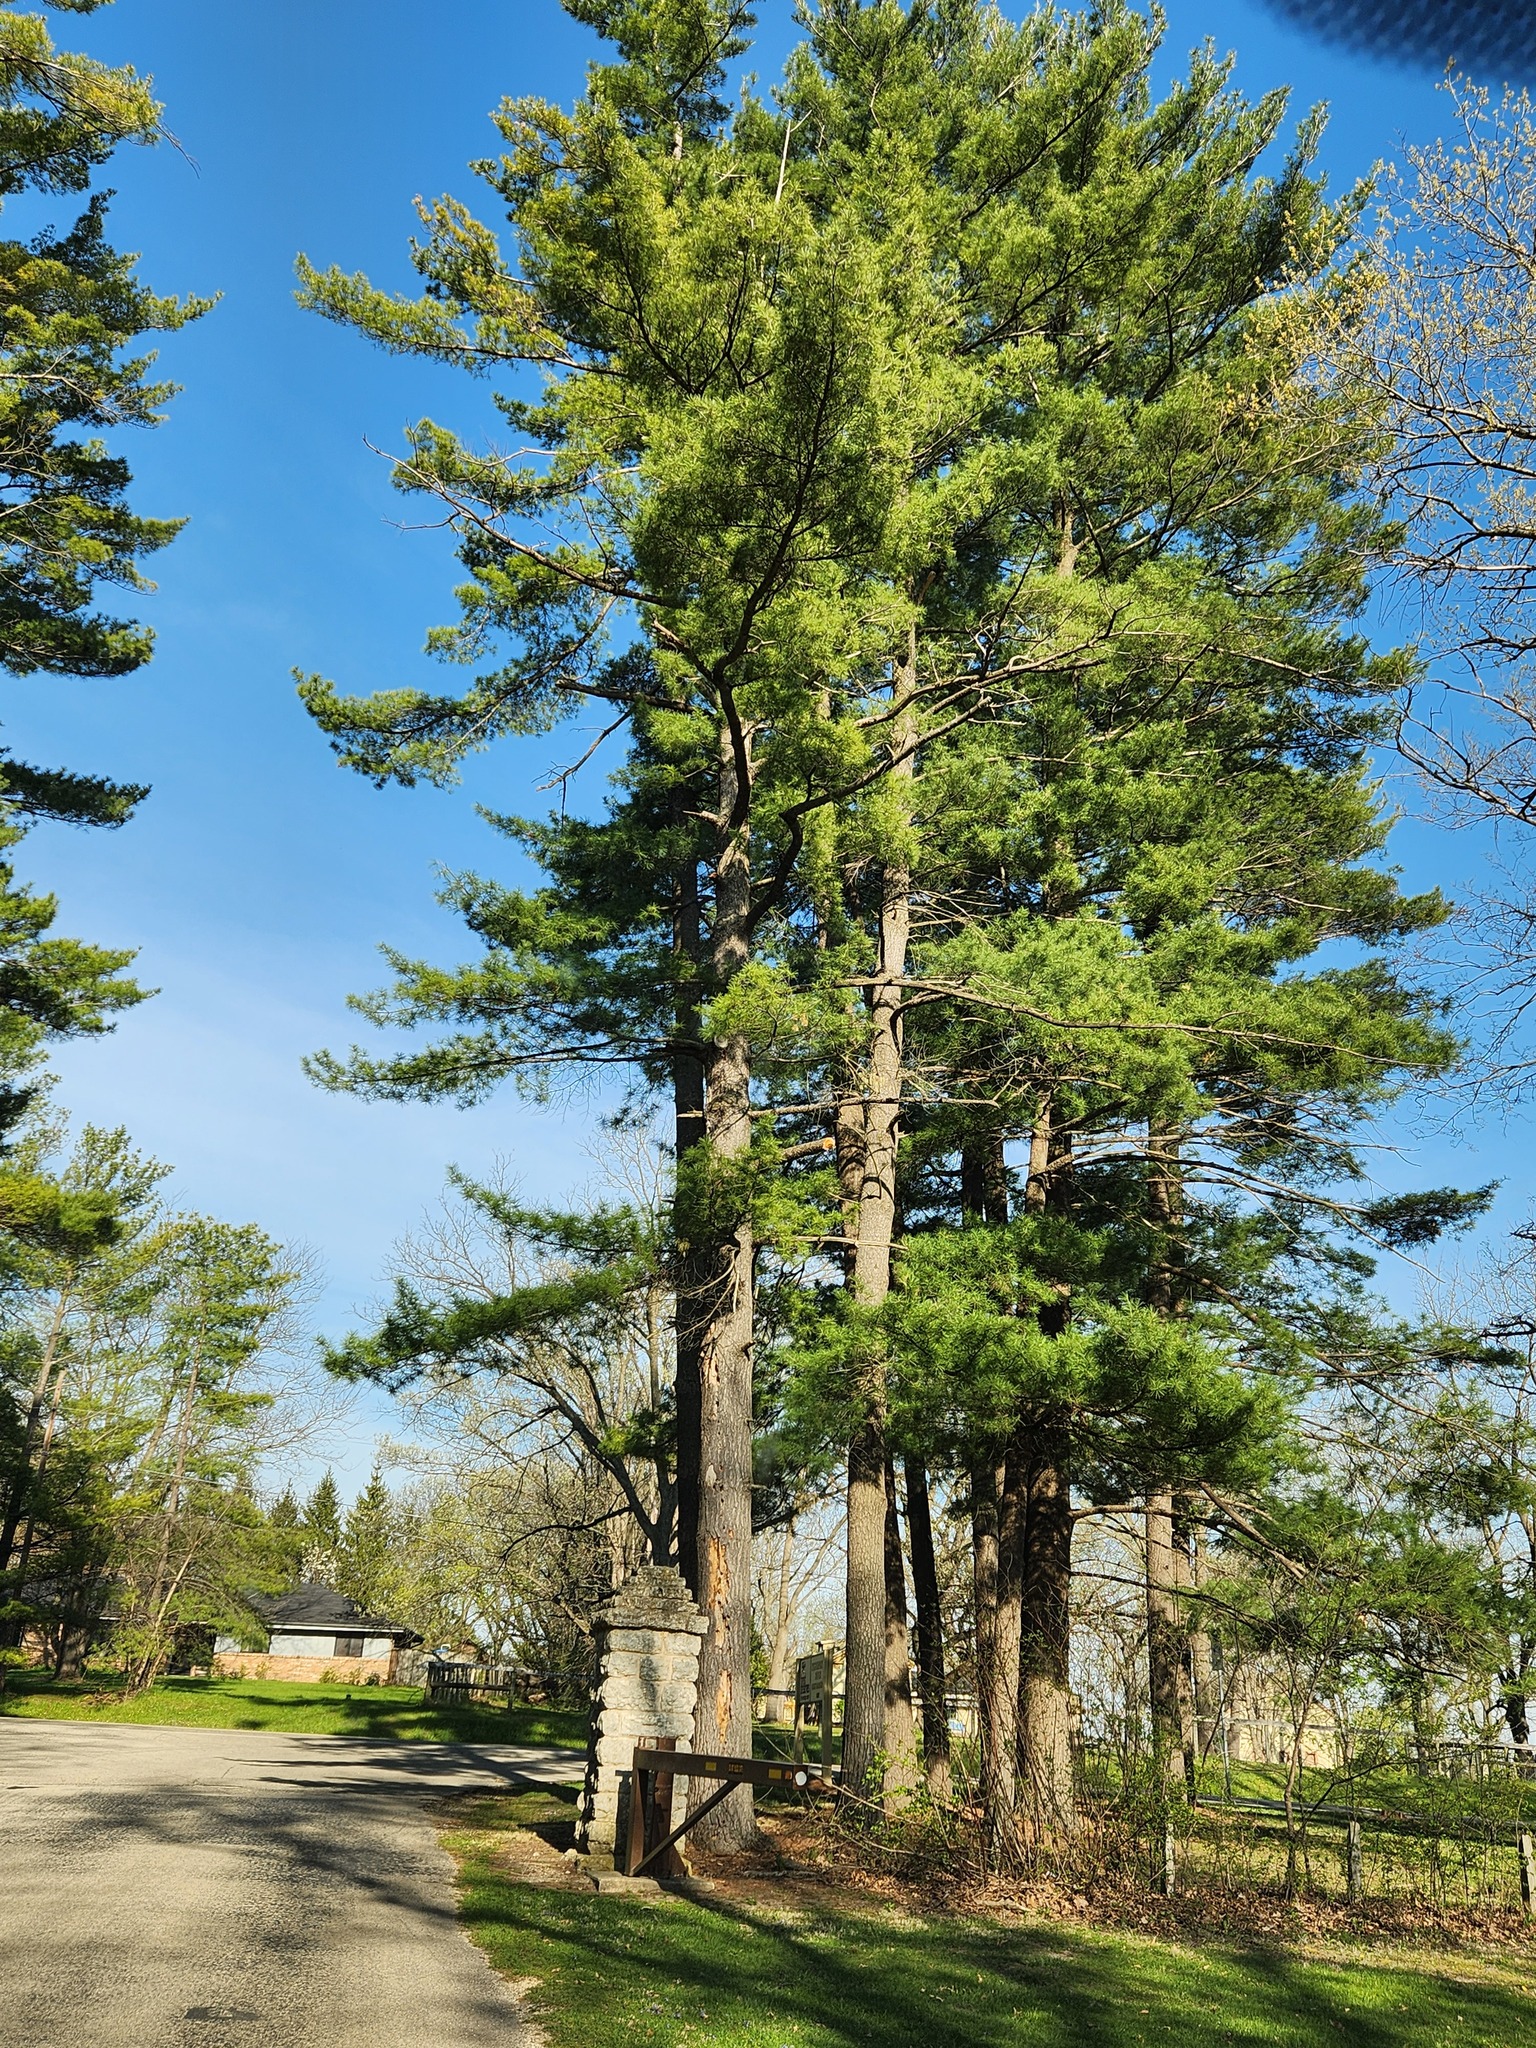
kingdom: Plantae
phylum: Tracheophyta
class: Pinopsida
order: Pinales
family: Pinaceae
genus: Pinus
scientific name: Pinus strobus
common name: Weymouth pine
